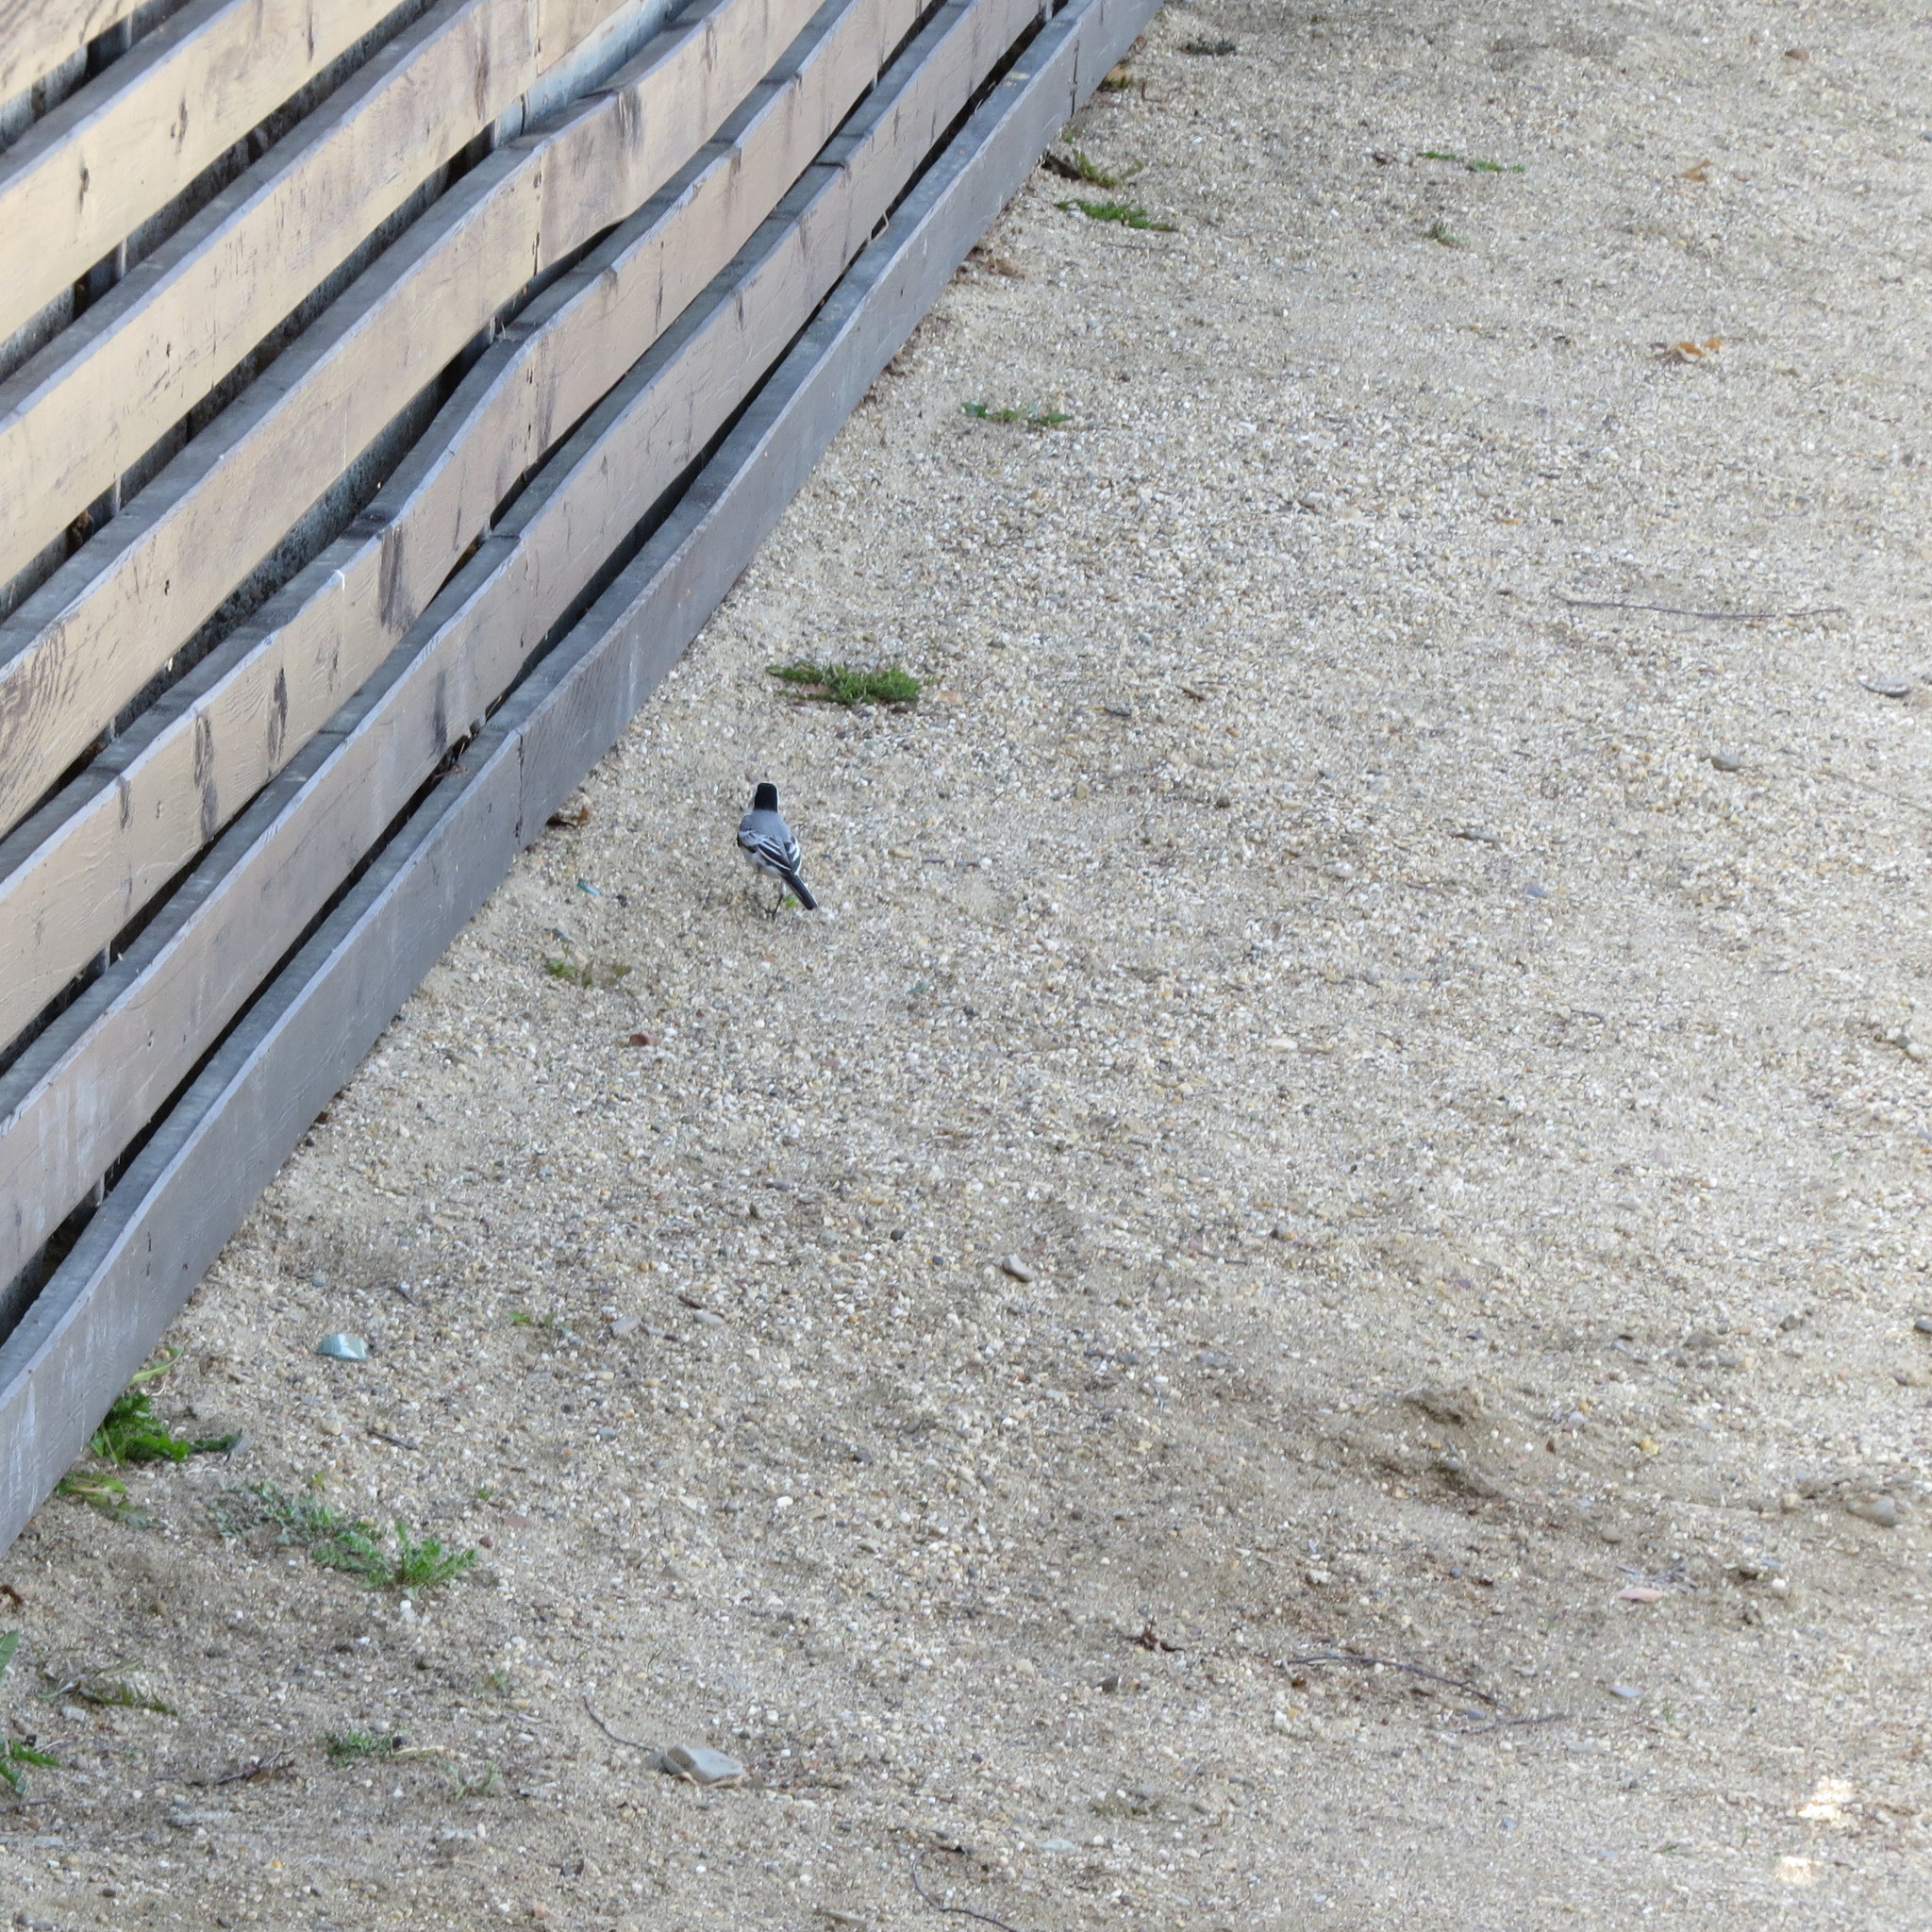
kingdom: Animalia
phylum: Chordata
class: Aves
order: Passeriformes
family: Motacillidae
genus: Motacilla
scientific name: Motacilla alba
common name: White wagtail
